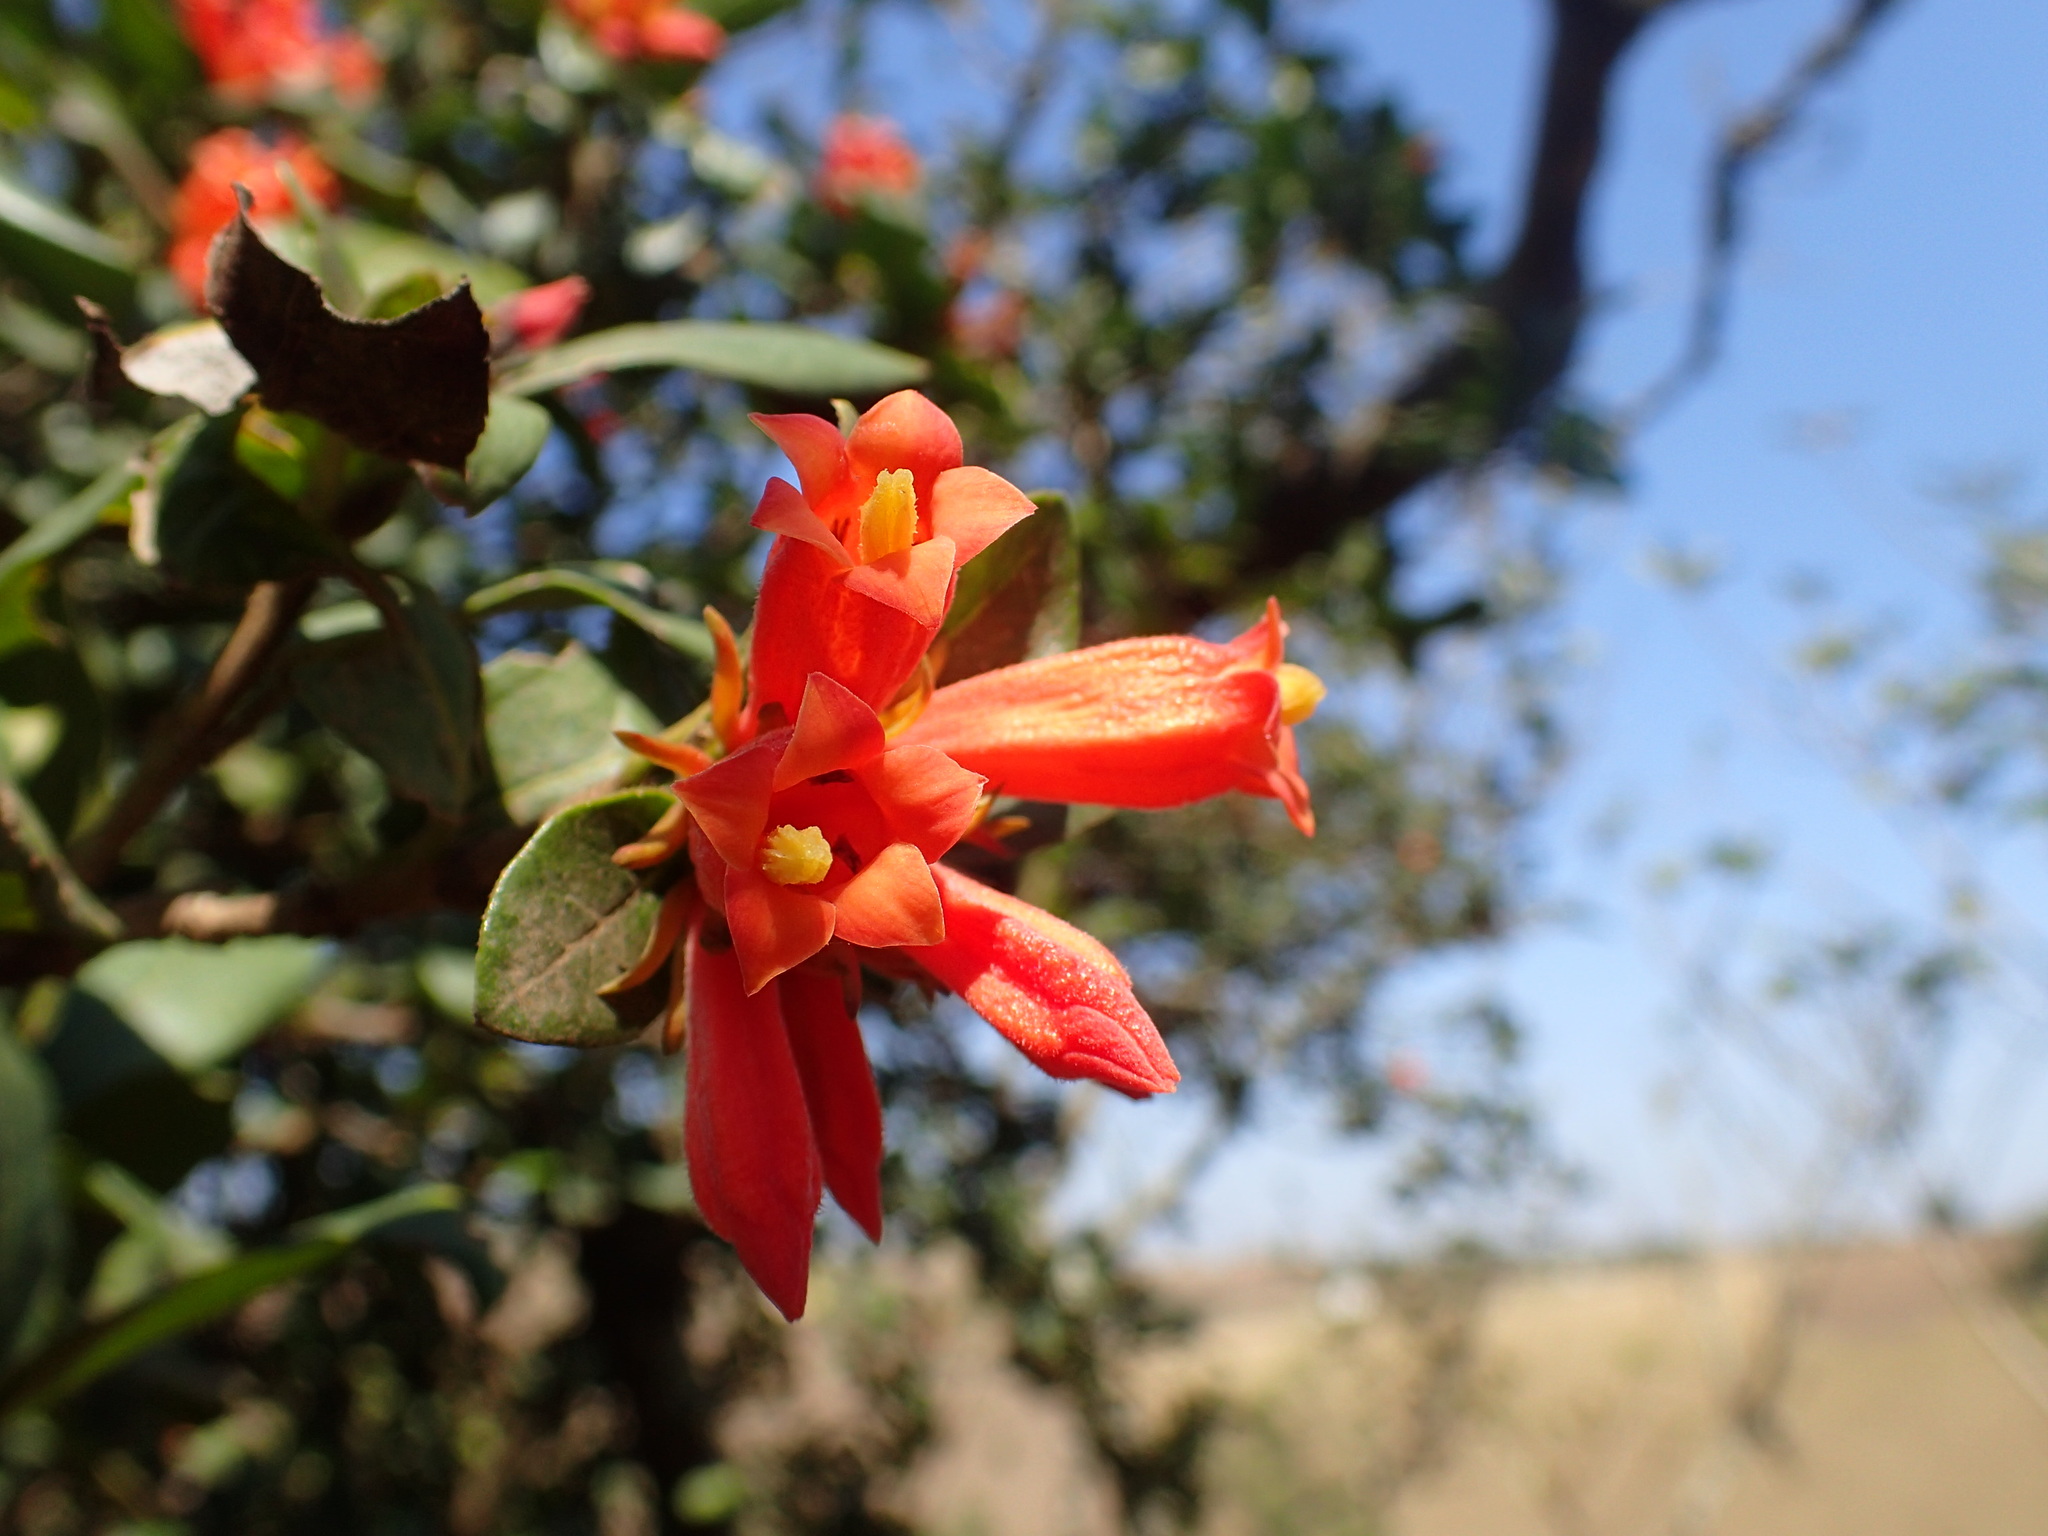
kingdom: Plantae
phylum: Tracheophyta
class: Magnoliopsida
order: Gentianales
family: Rubiaceae
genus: Burchellia
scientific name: Burchellia bubalina
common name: Wild pomegranate
